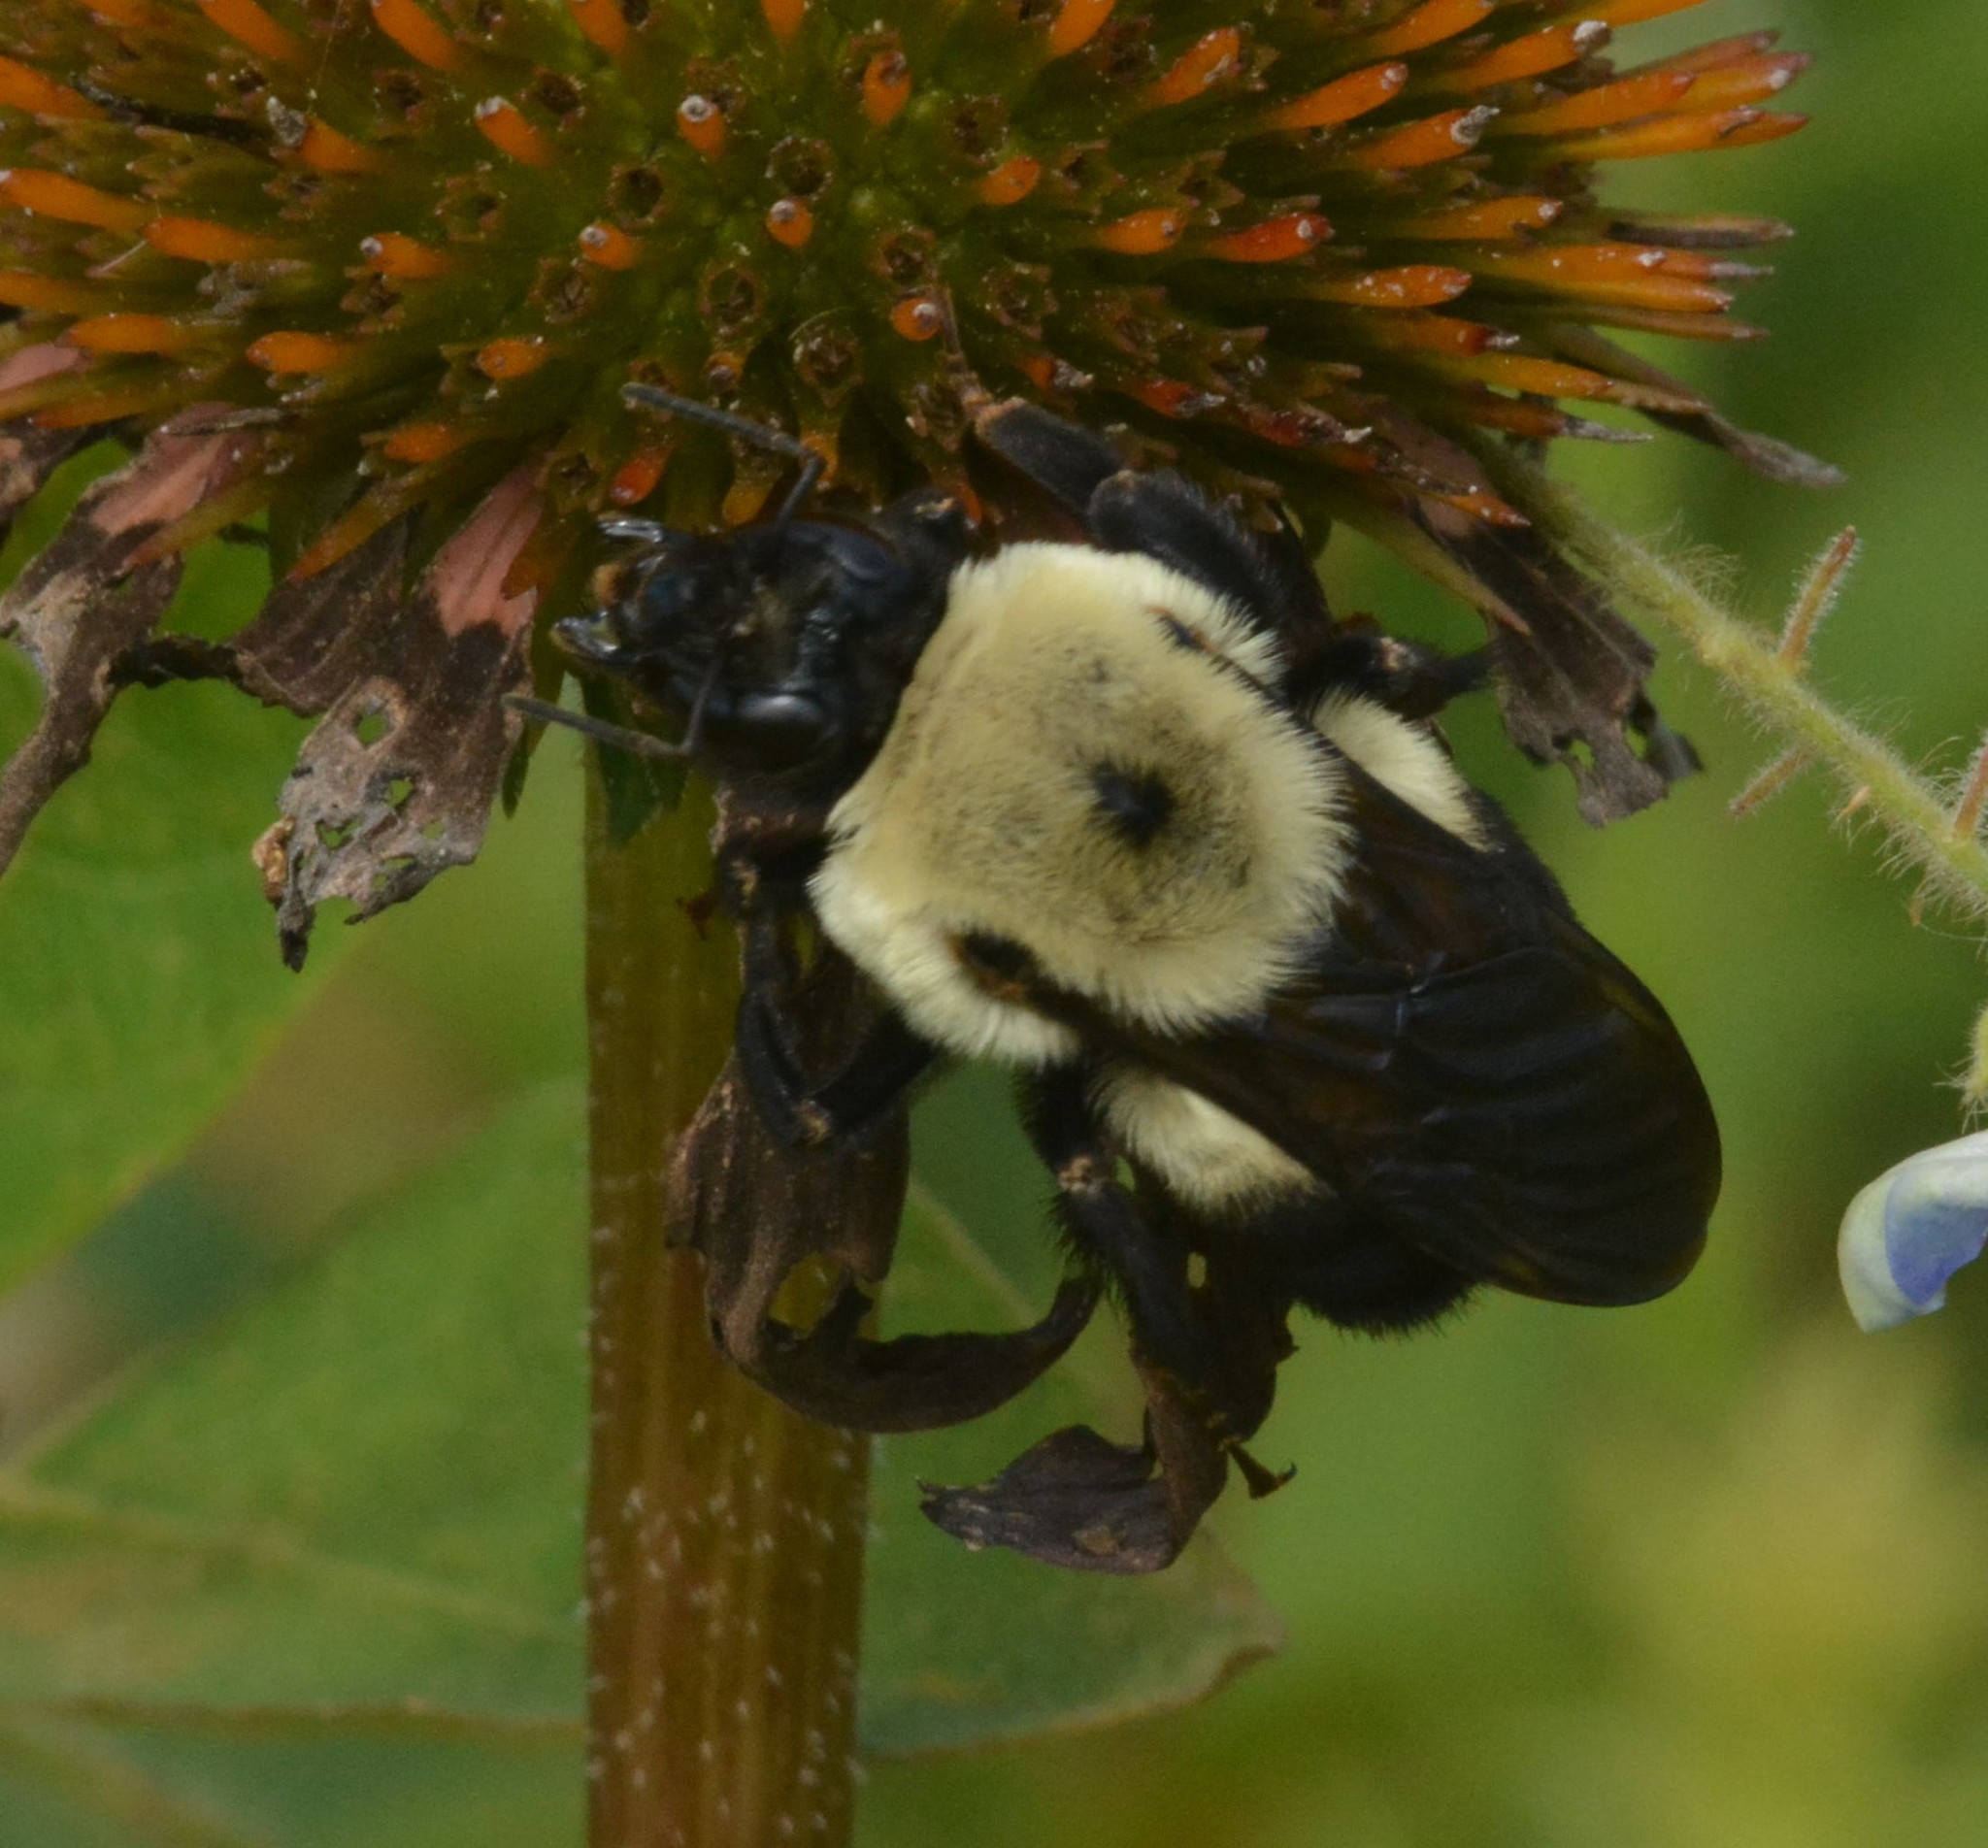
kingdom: Animalia
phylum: Arthropoda
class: Insecta
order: Hymenoptera
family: Apidae
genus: Bombus
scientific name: Bombus griseocollis
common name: Brown-belted bumble bee
